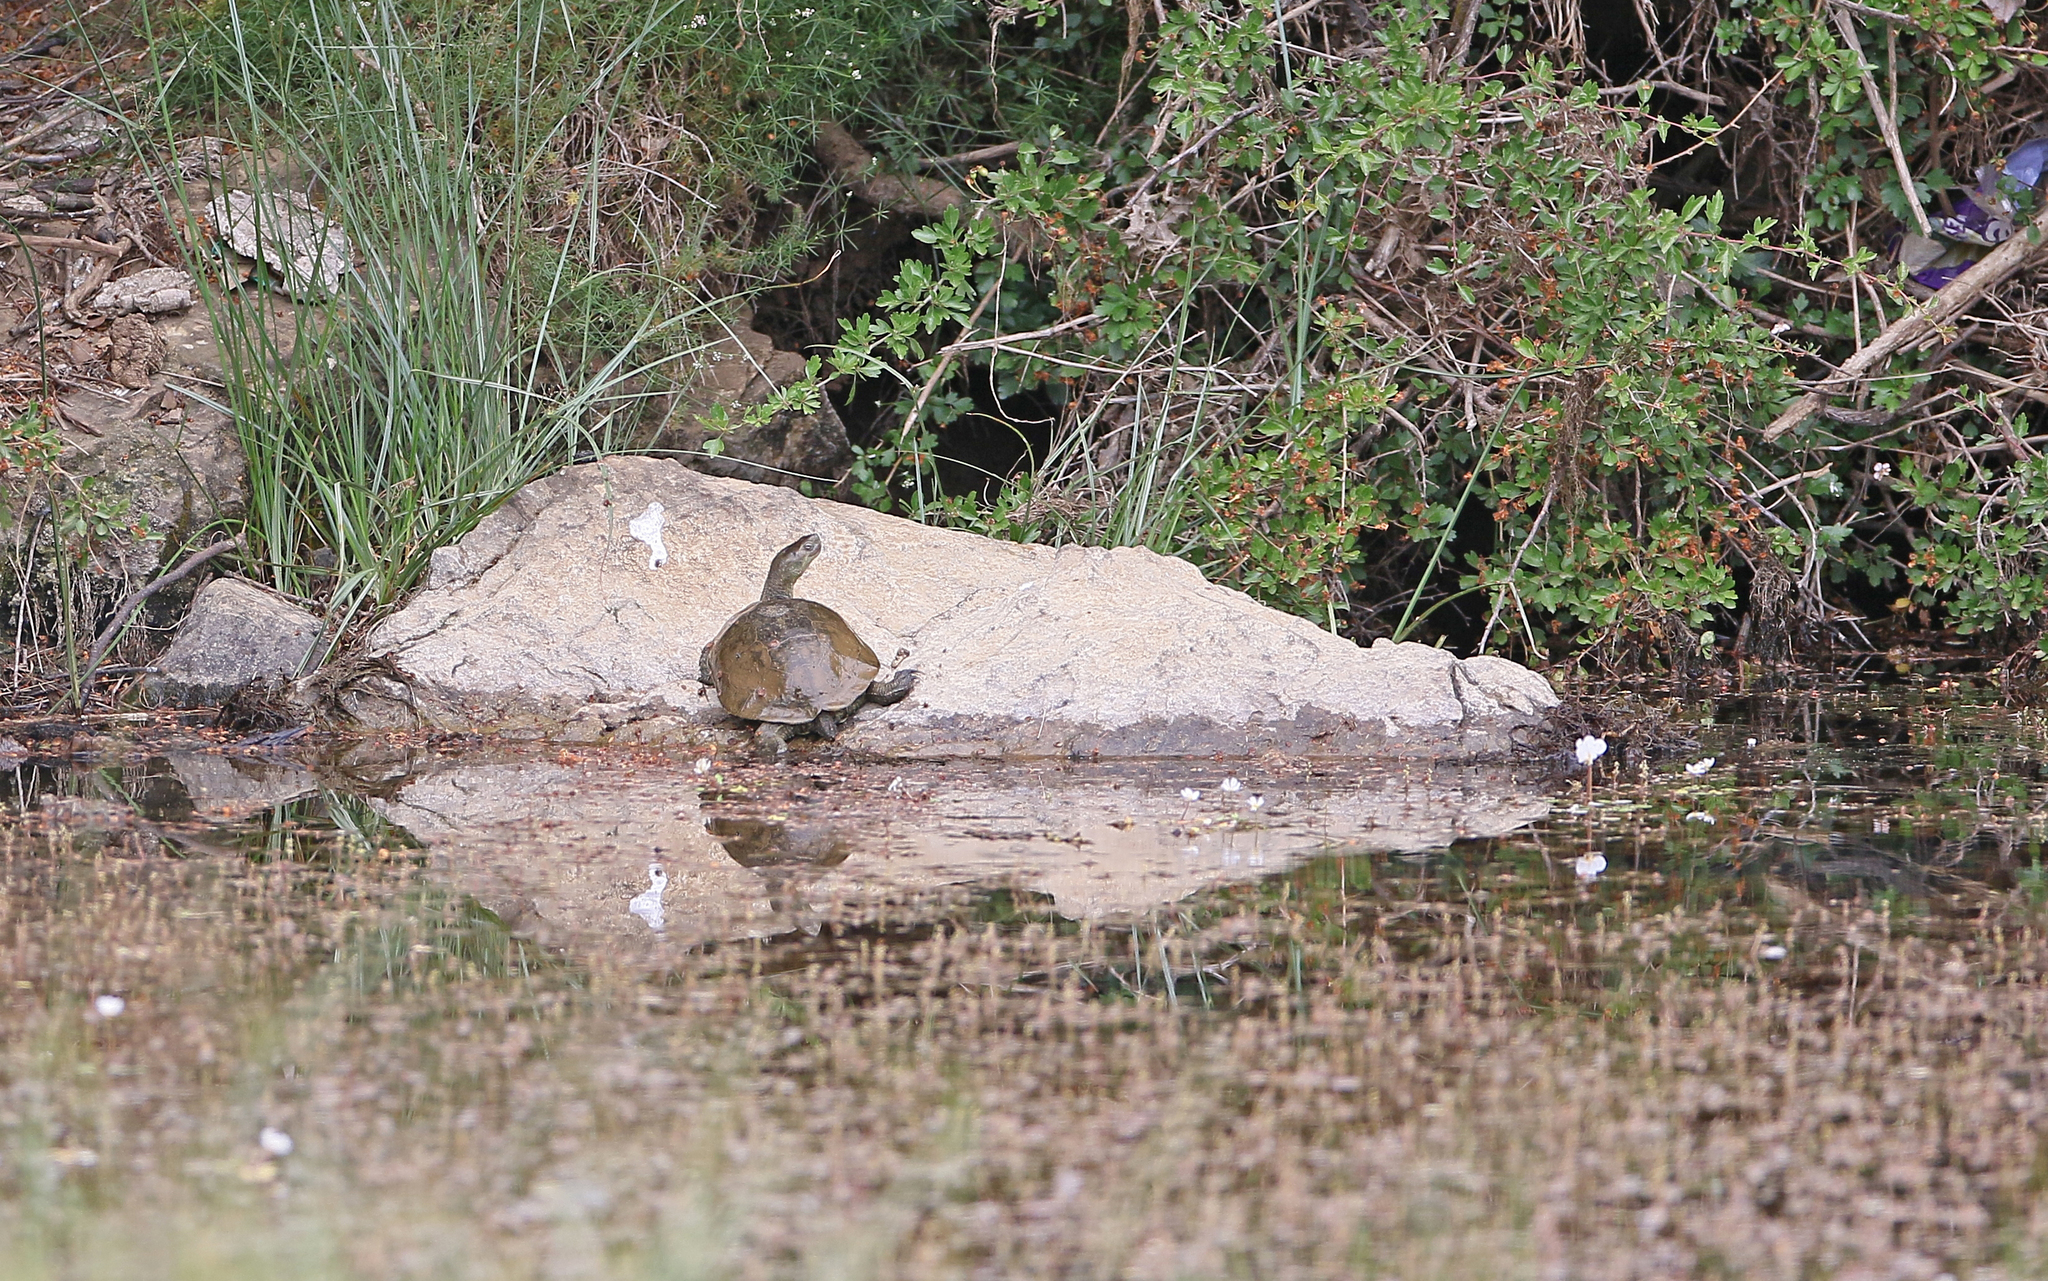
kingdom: Animalia
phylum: Chordata
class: Testudines
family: Geoemydidae
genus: Mauremys
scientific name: Mauremys leprosa
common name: Mediterranean pond turtle
